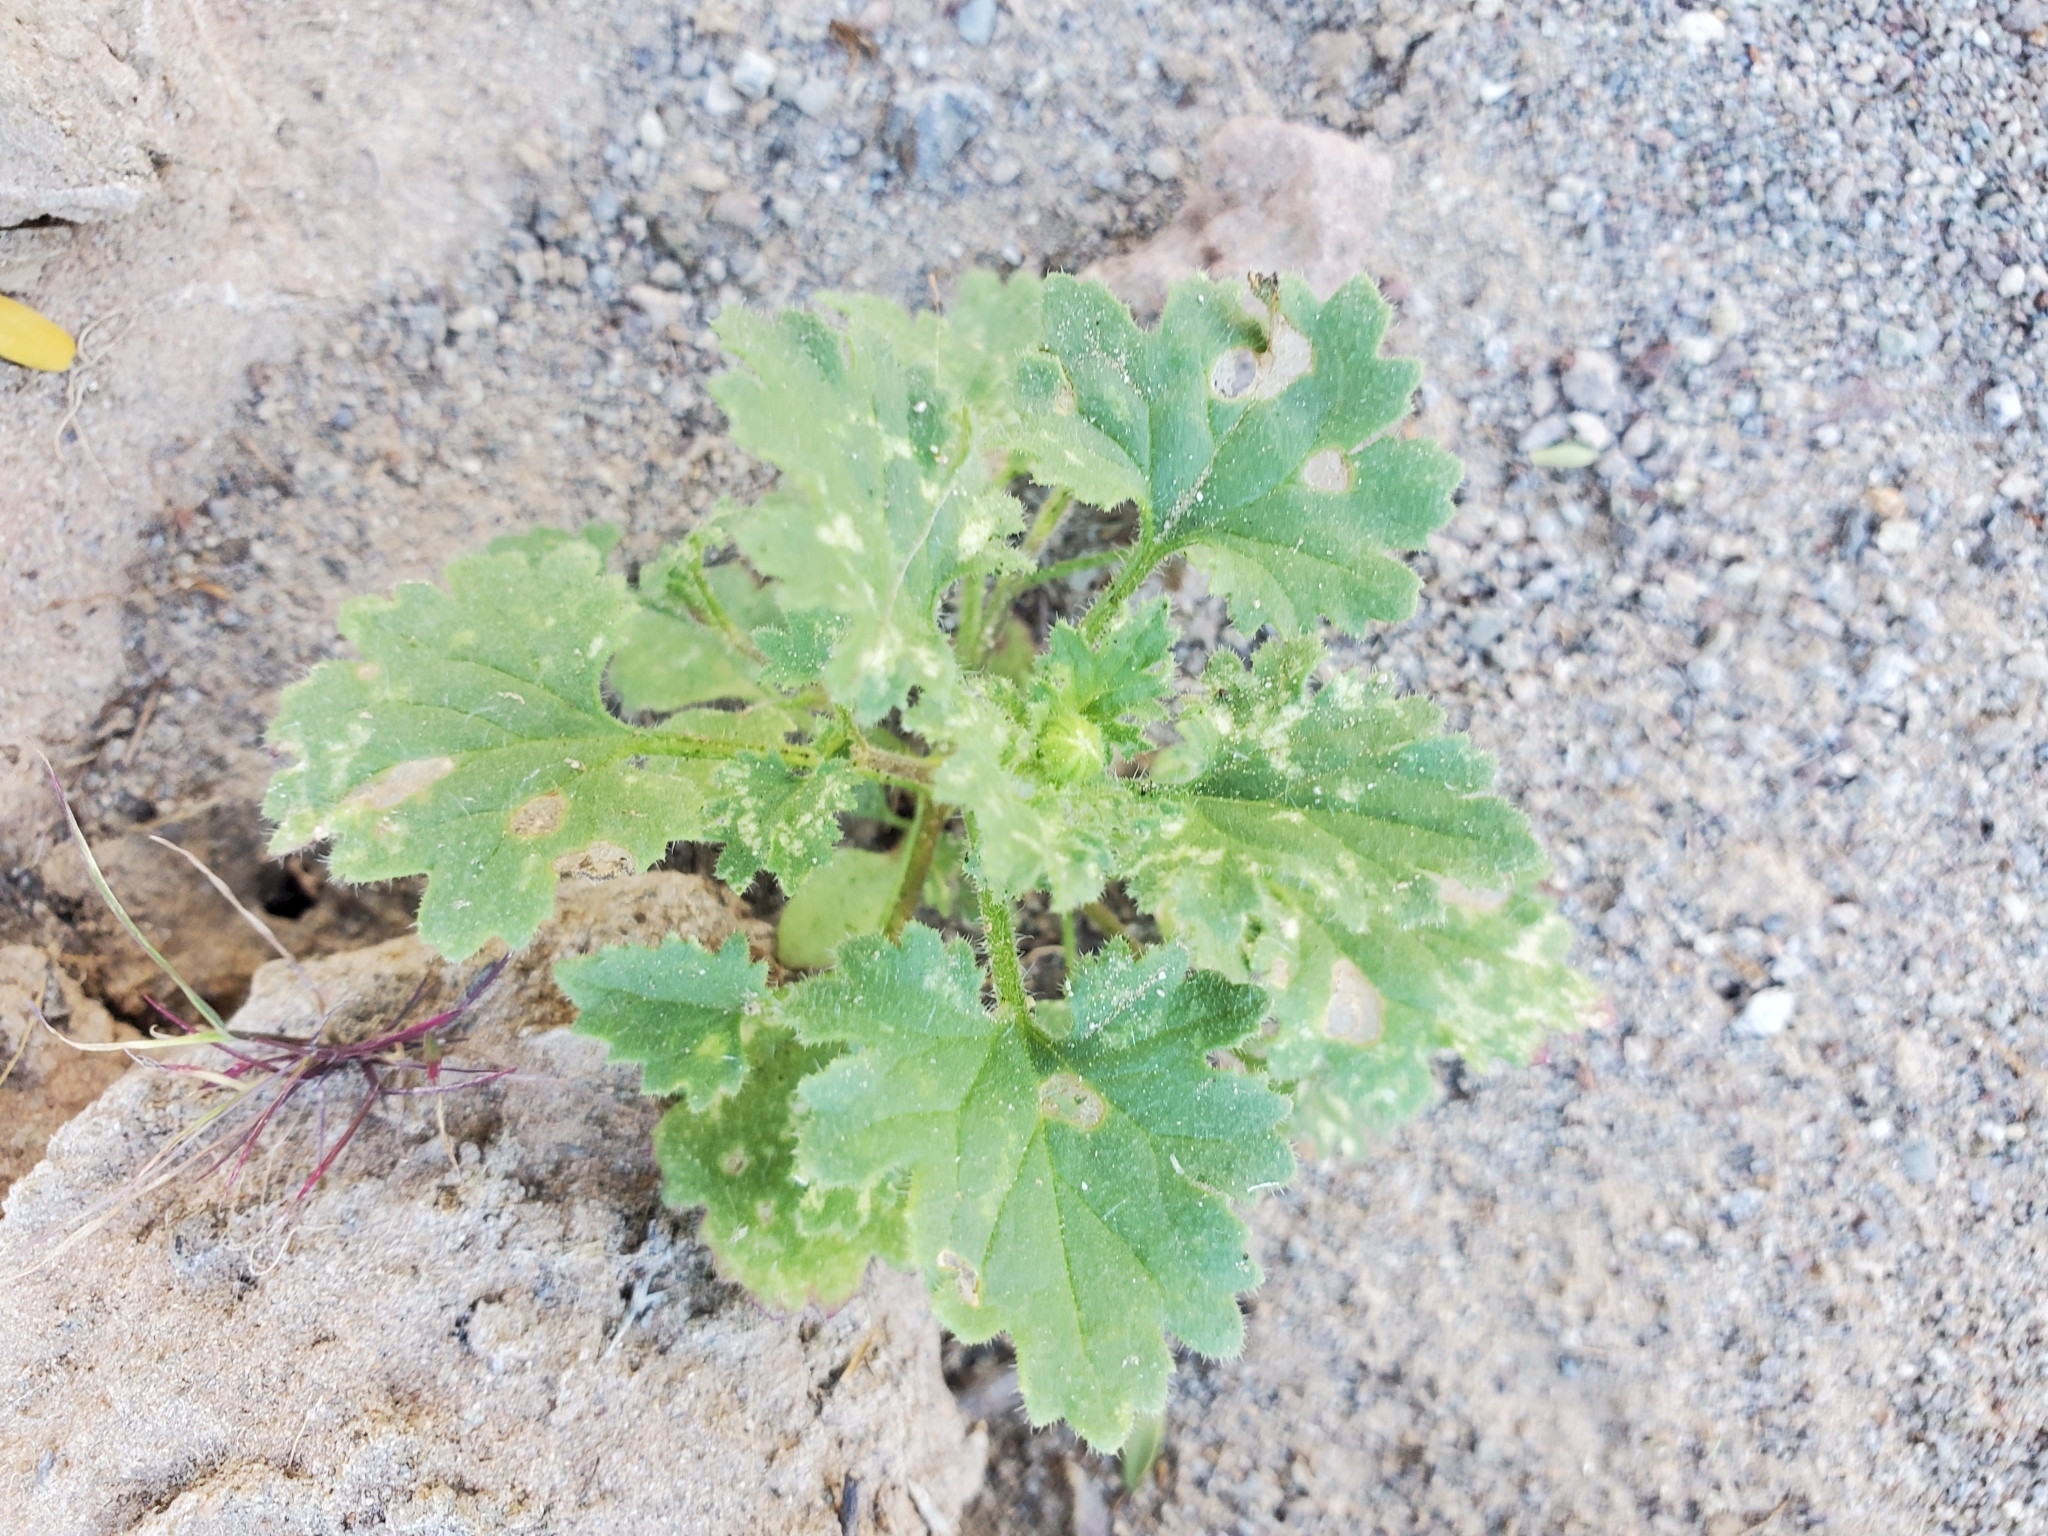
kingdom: Plantae
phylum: Tracheophyta
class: Magnoliopsida
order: Asterales
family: Asteraceae
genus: Laphamia
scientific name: Laphamia emoryi
